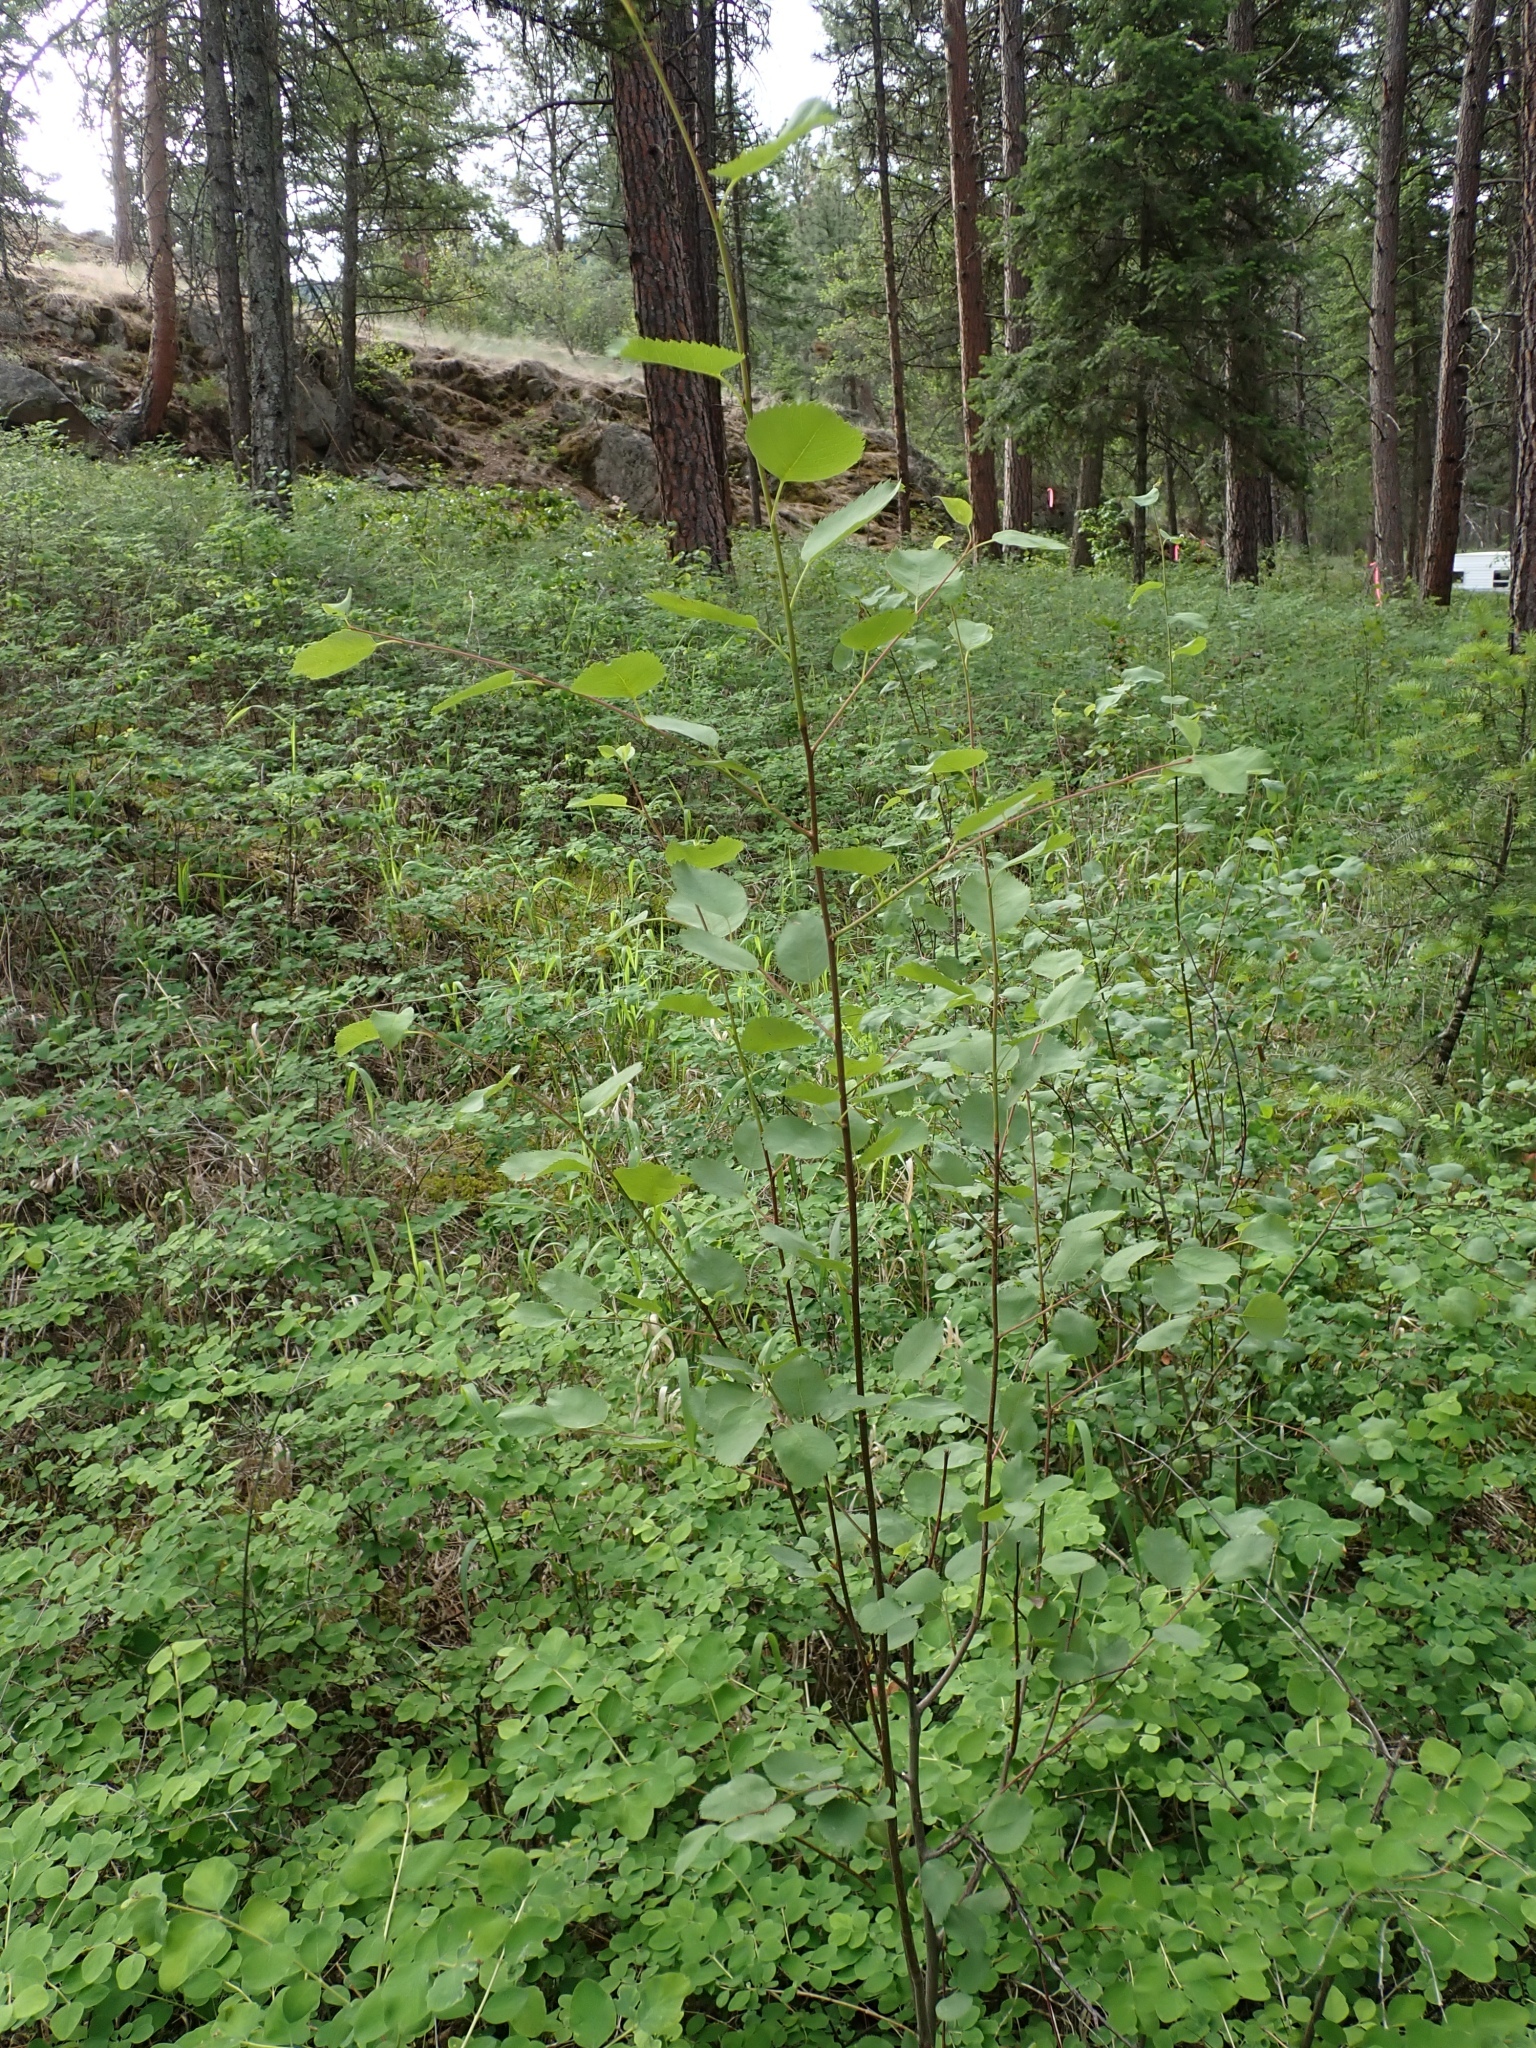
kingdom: Plantae
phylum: Tracheophyta
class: Magnoliopsida
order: Rosales
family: Rosaceae
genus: Amelanchier
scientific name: Amelanchier alnifolia
